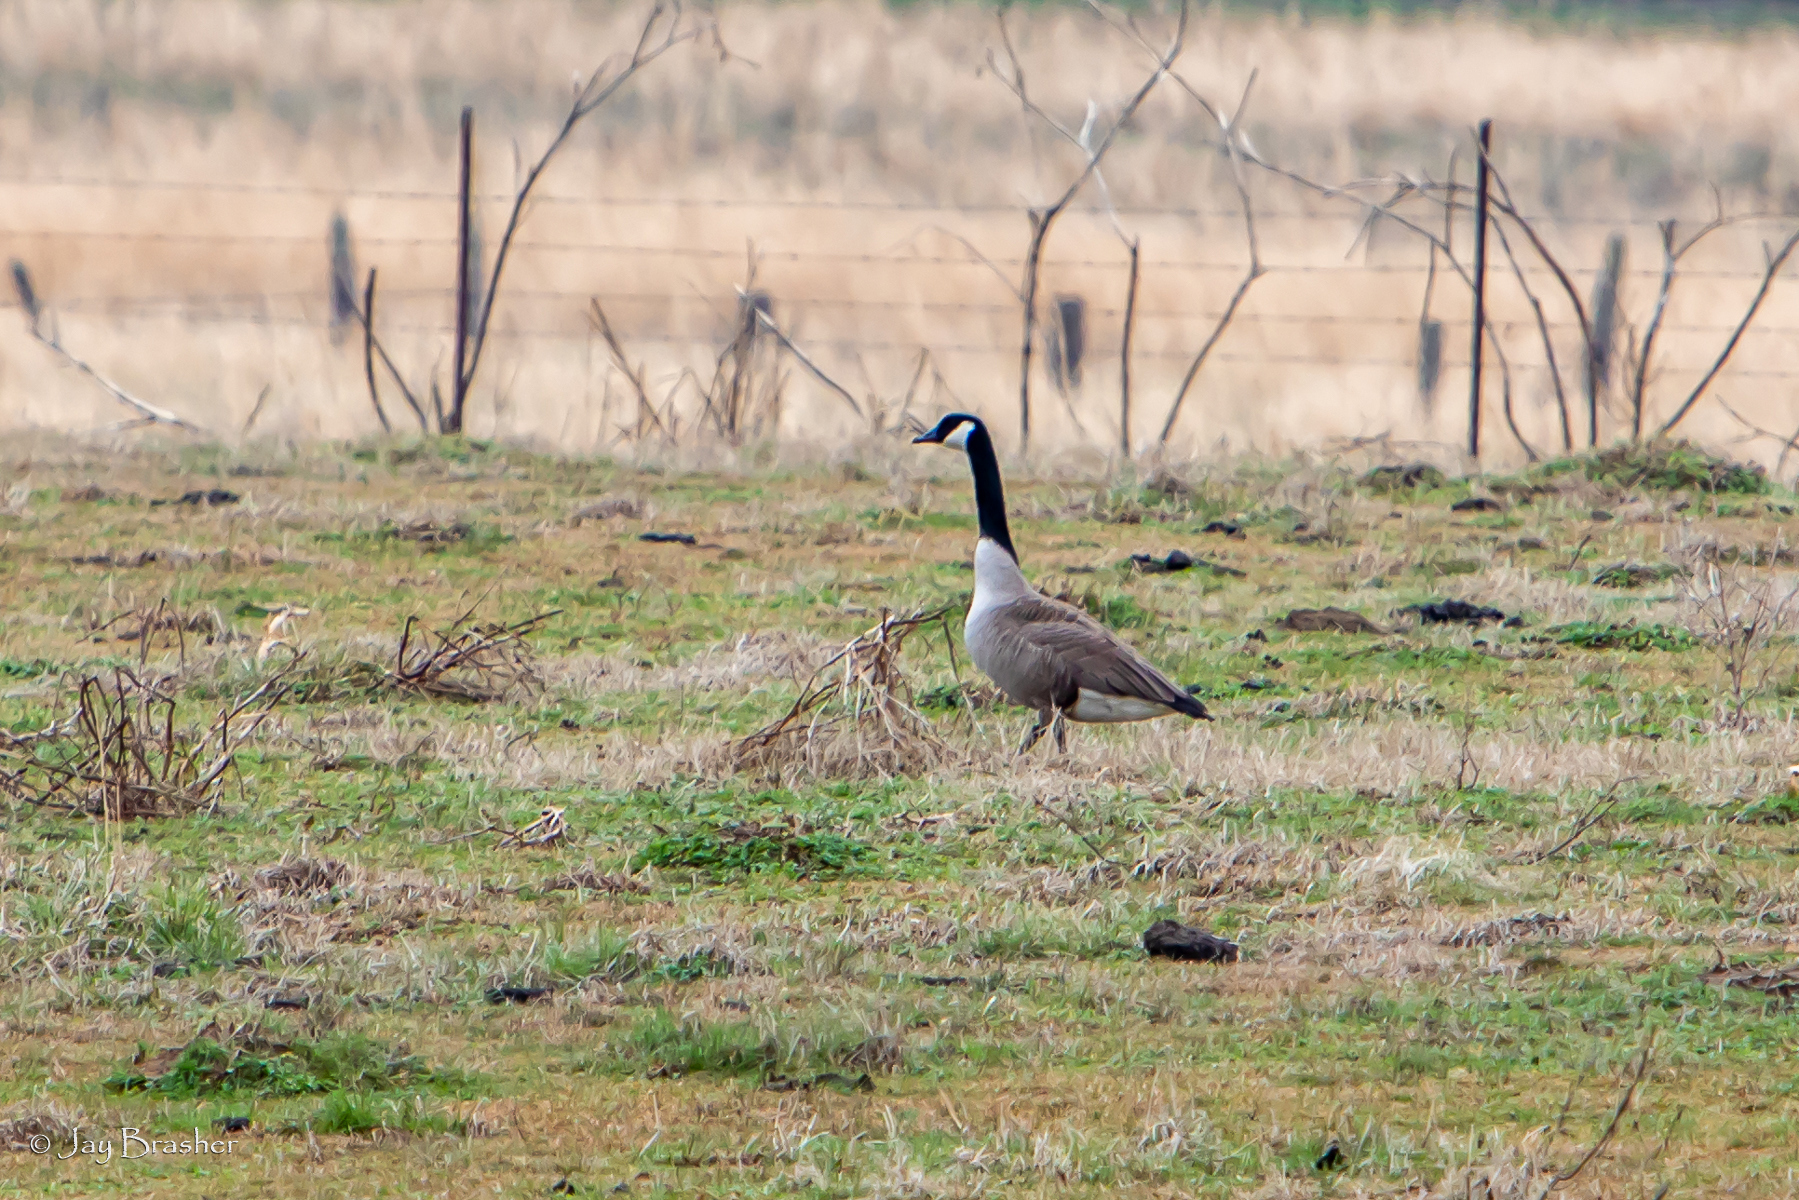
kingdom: Animalia
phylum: Chordata
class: Aves
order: Anseriformes
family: Anatidae
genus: Branta
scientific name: Branta canadensis
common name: Canada goose
